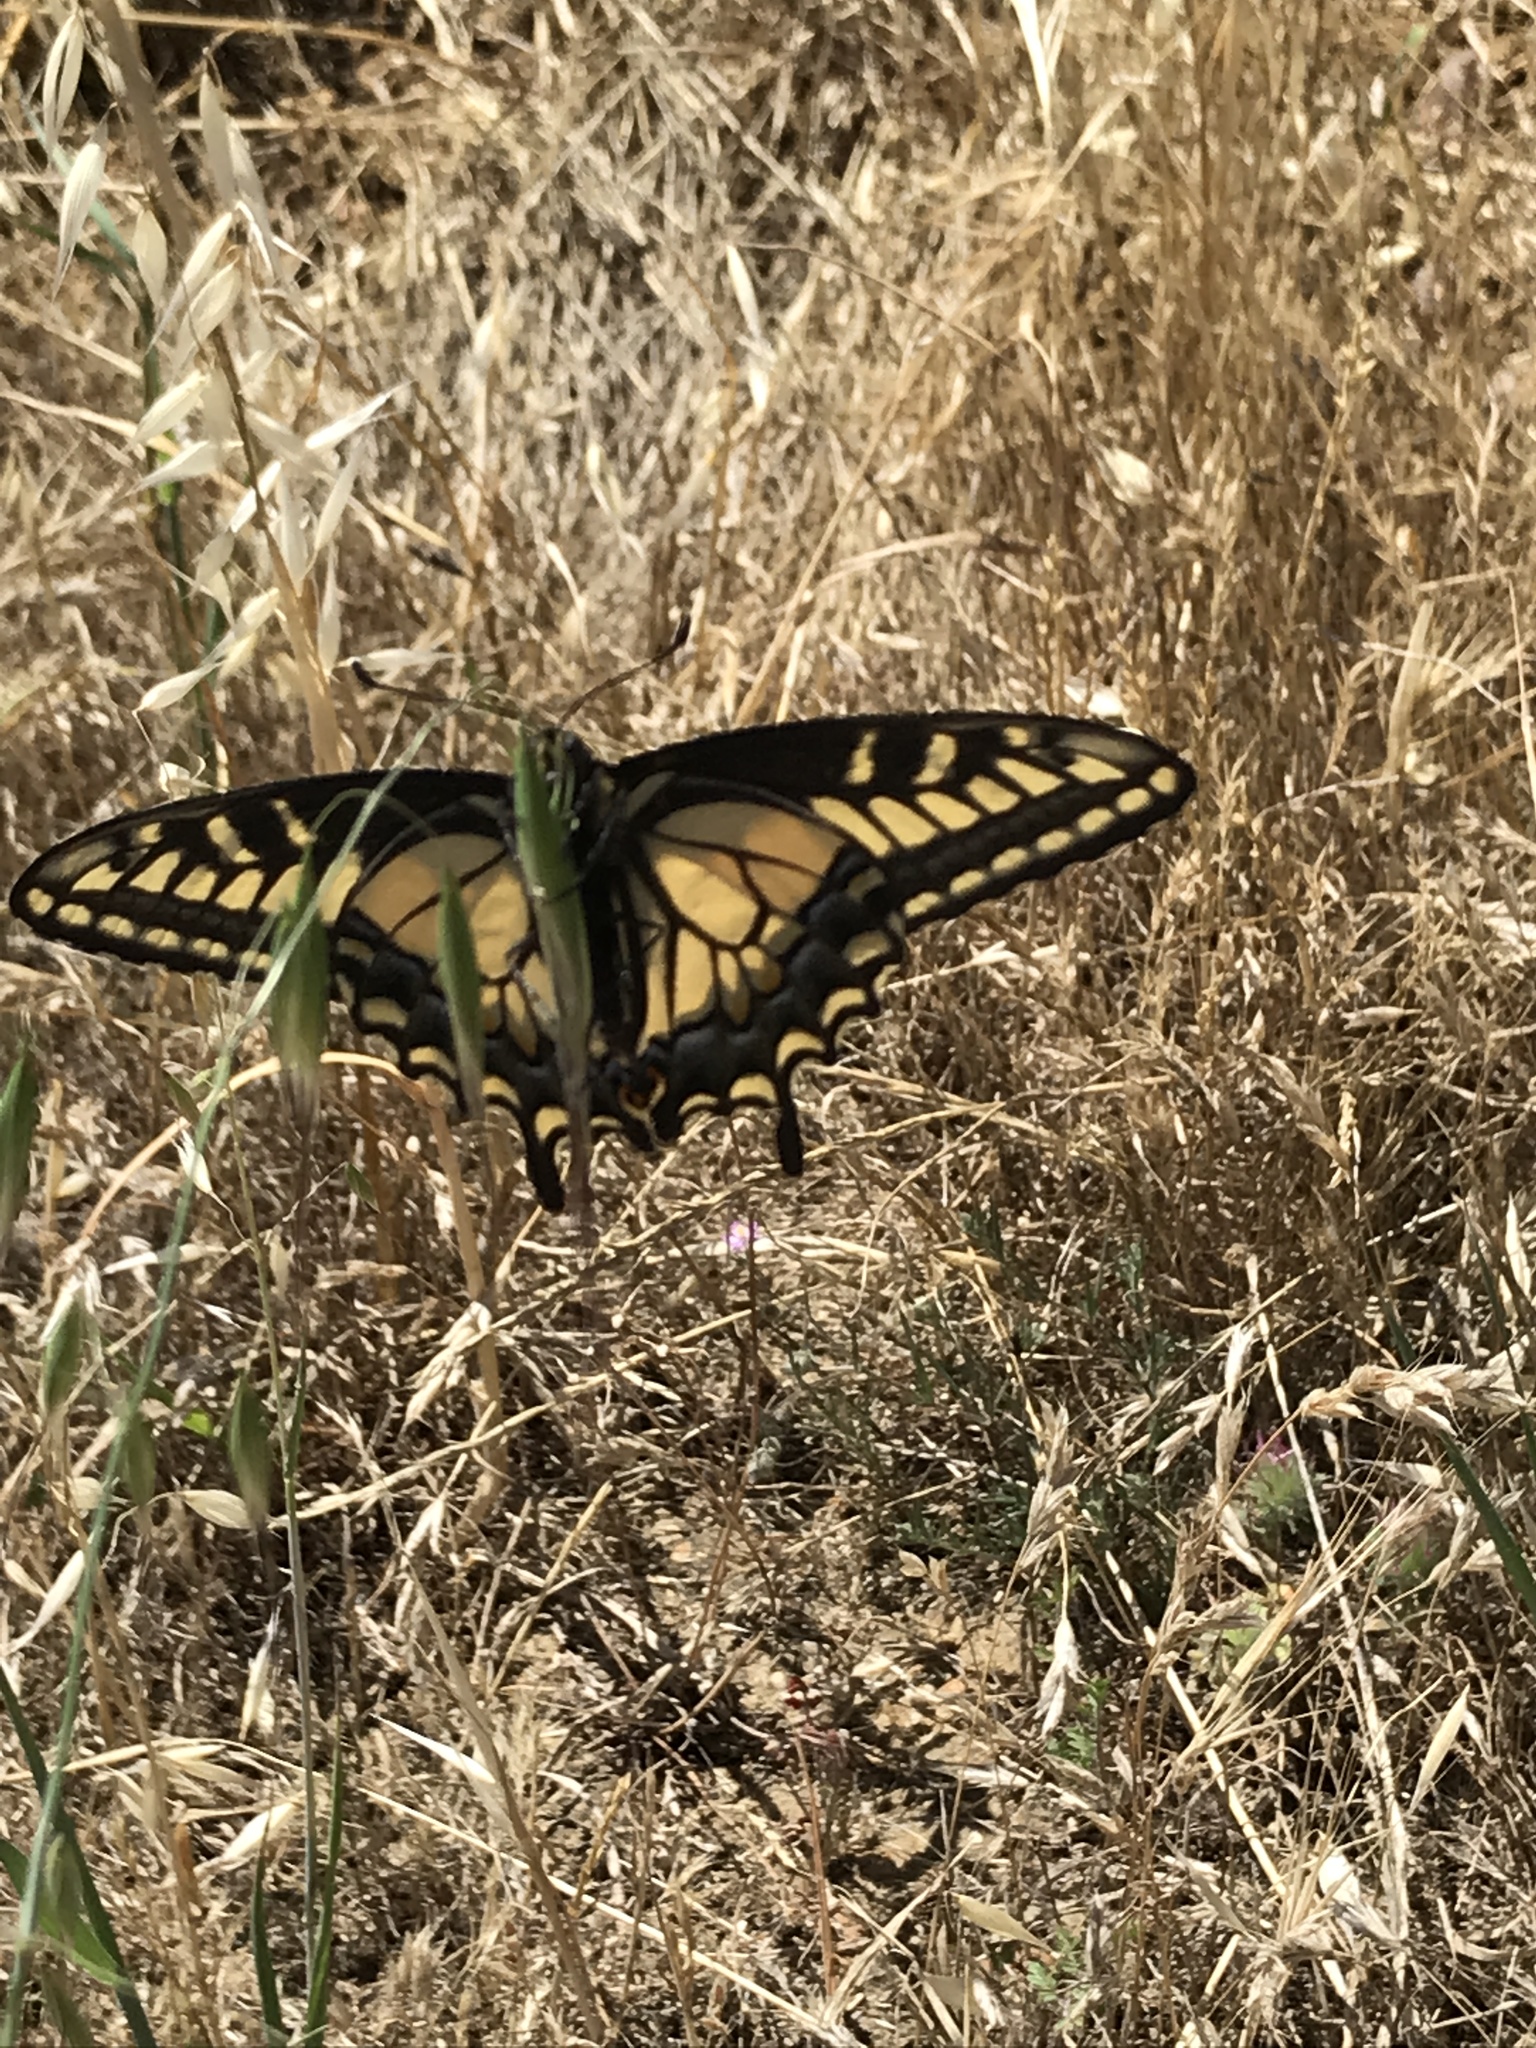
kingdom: Animalia
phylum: Arthropoda
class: Insecta
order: Lepidoptera
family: Papilionidae
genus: Papilio
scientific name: Papilio zelicaon
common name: Anise swallowtail
